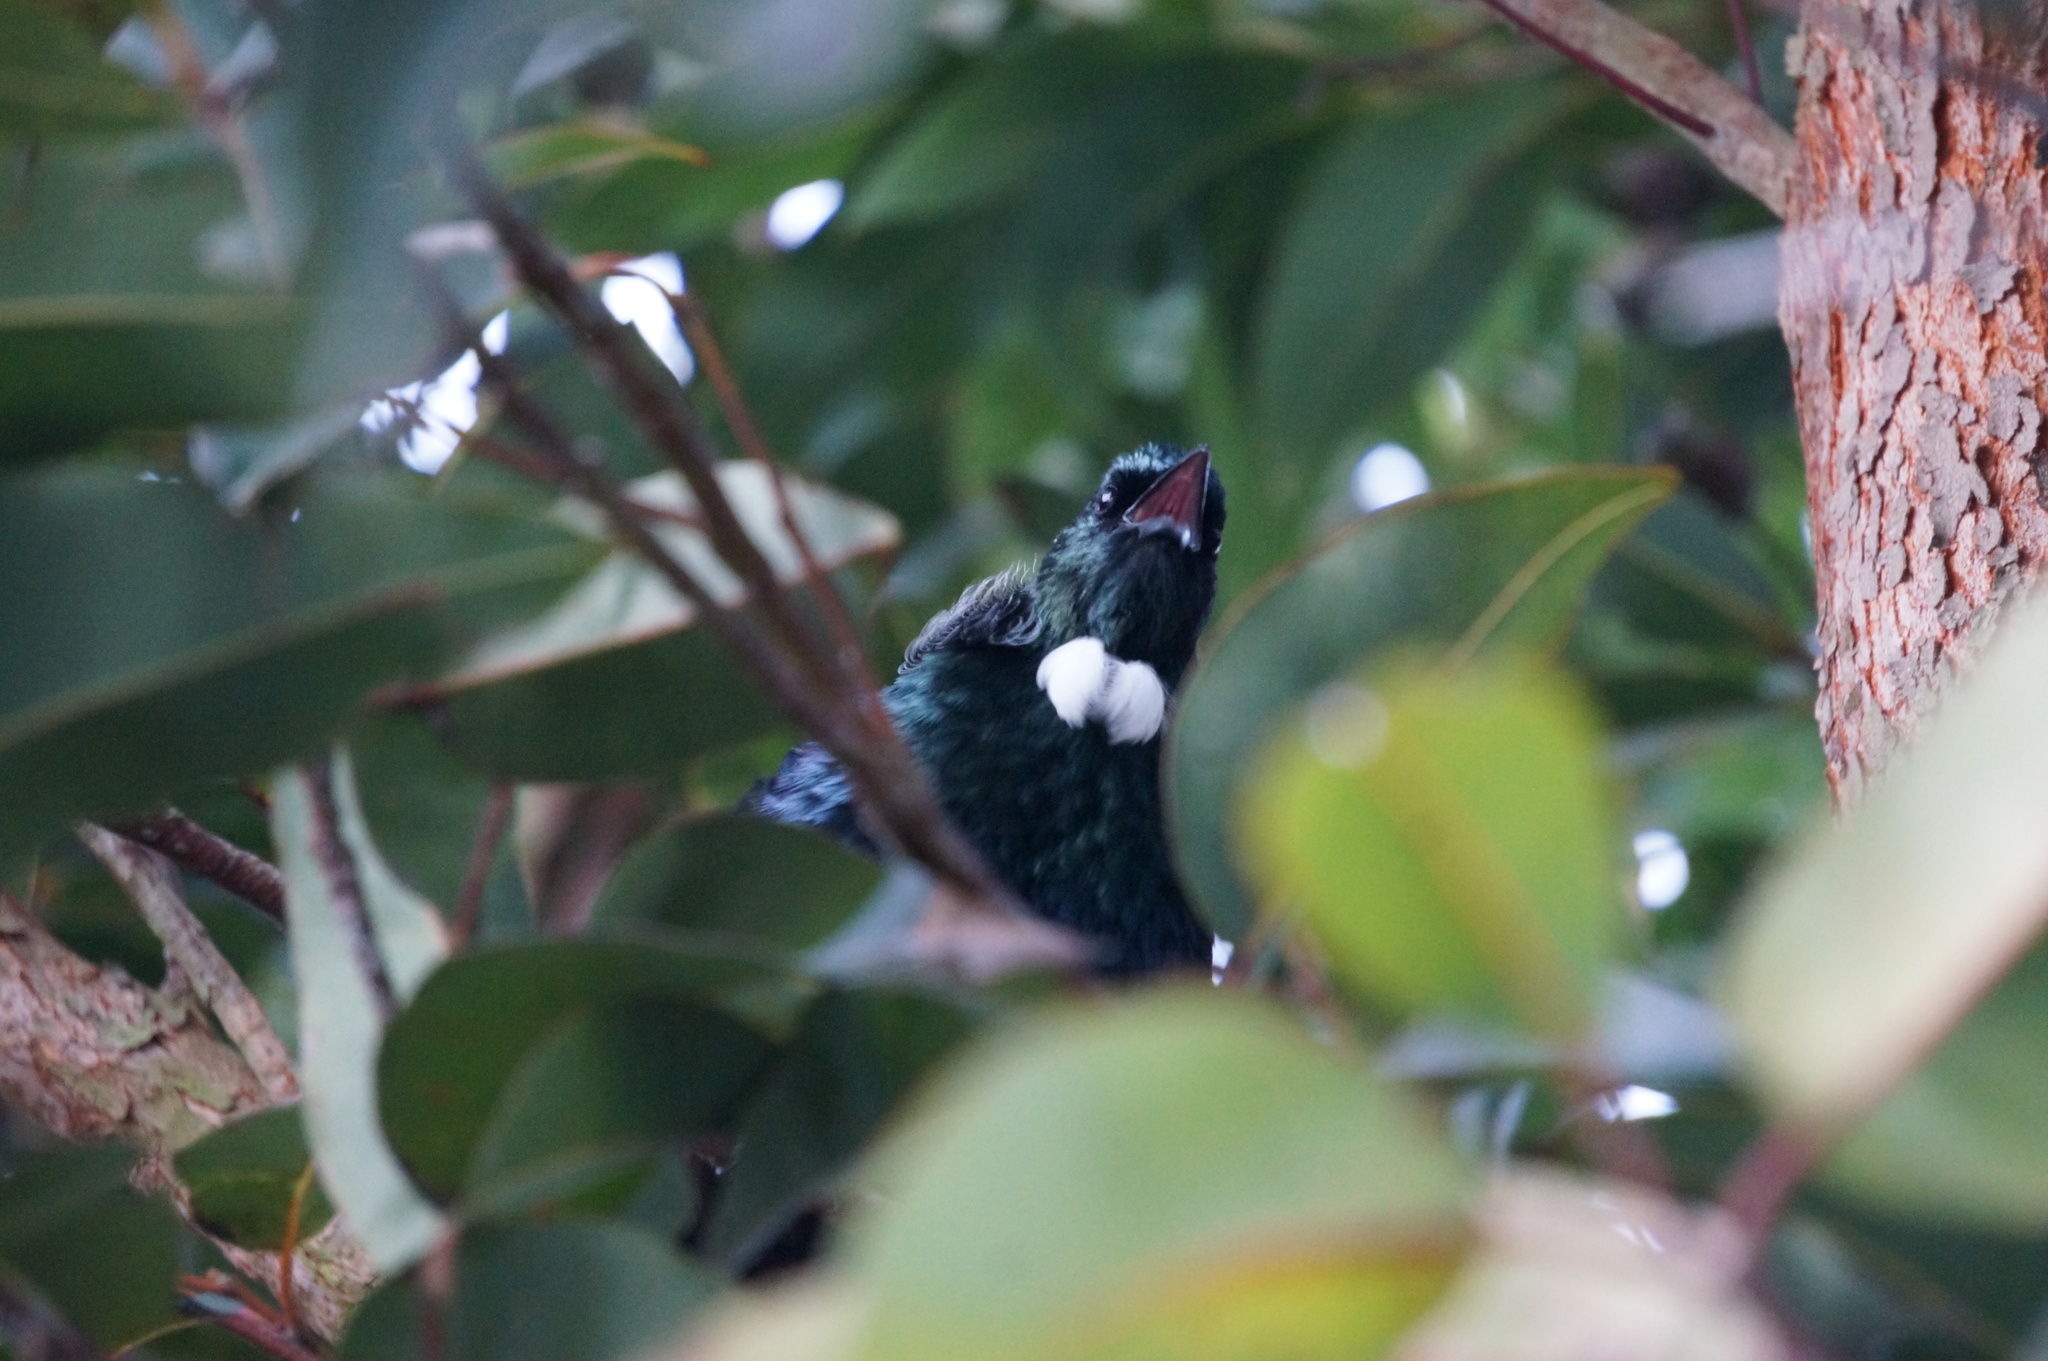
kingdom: Animalia
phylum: Chordata
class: Aves
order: Passeriformes
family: Meliphagidae
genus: Prosthemadera
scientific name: Prosthemadera novaeseelandiae
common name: Tui
